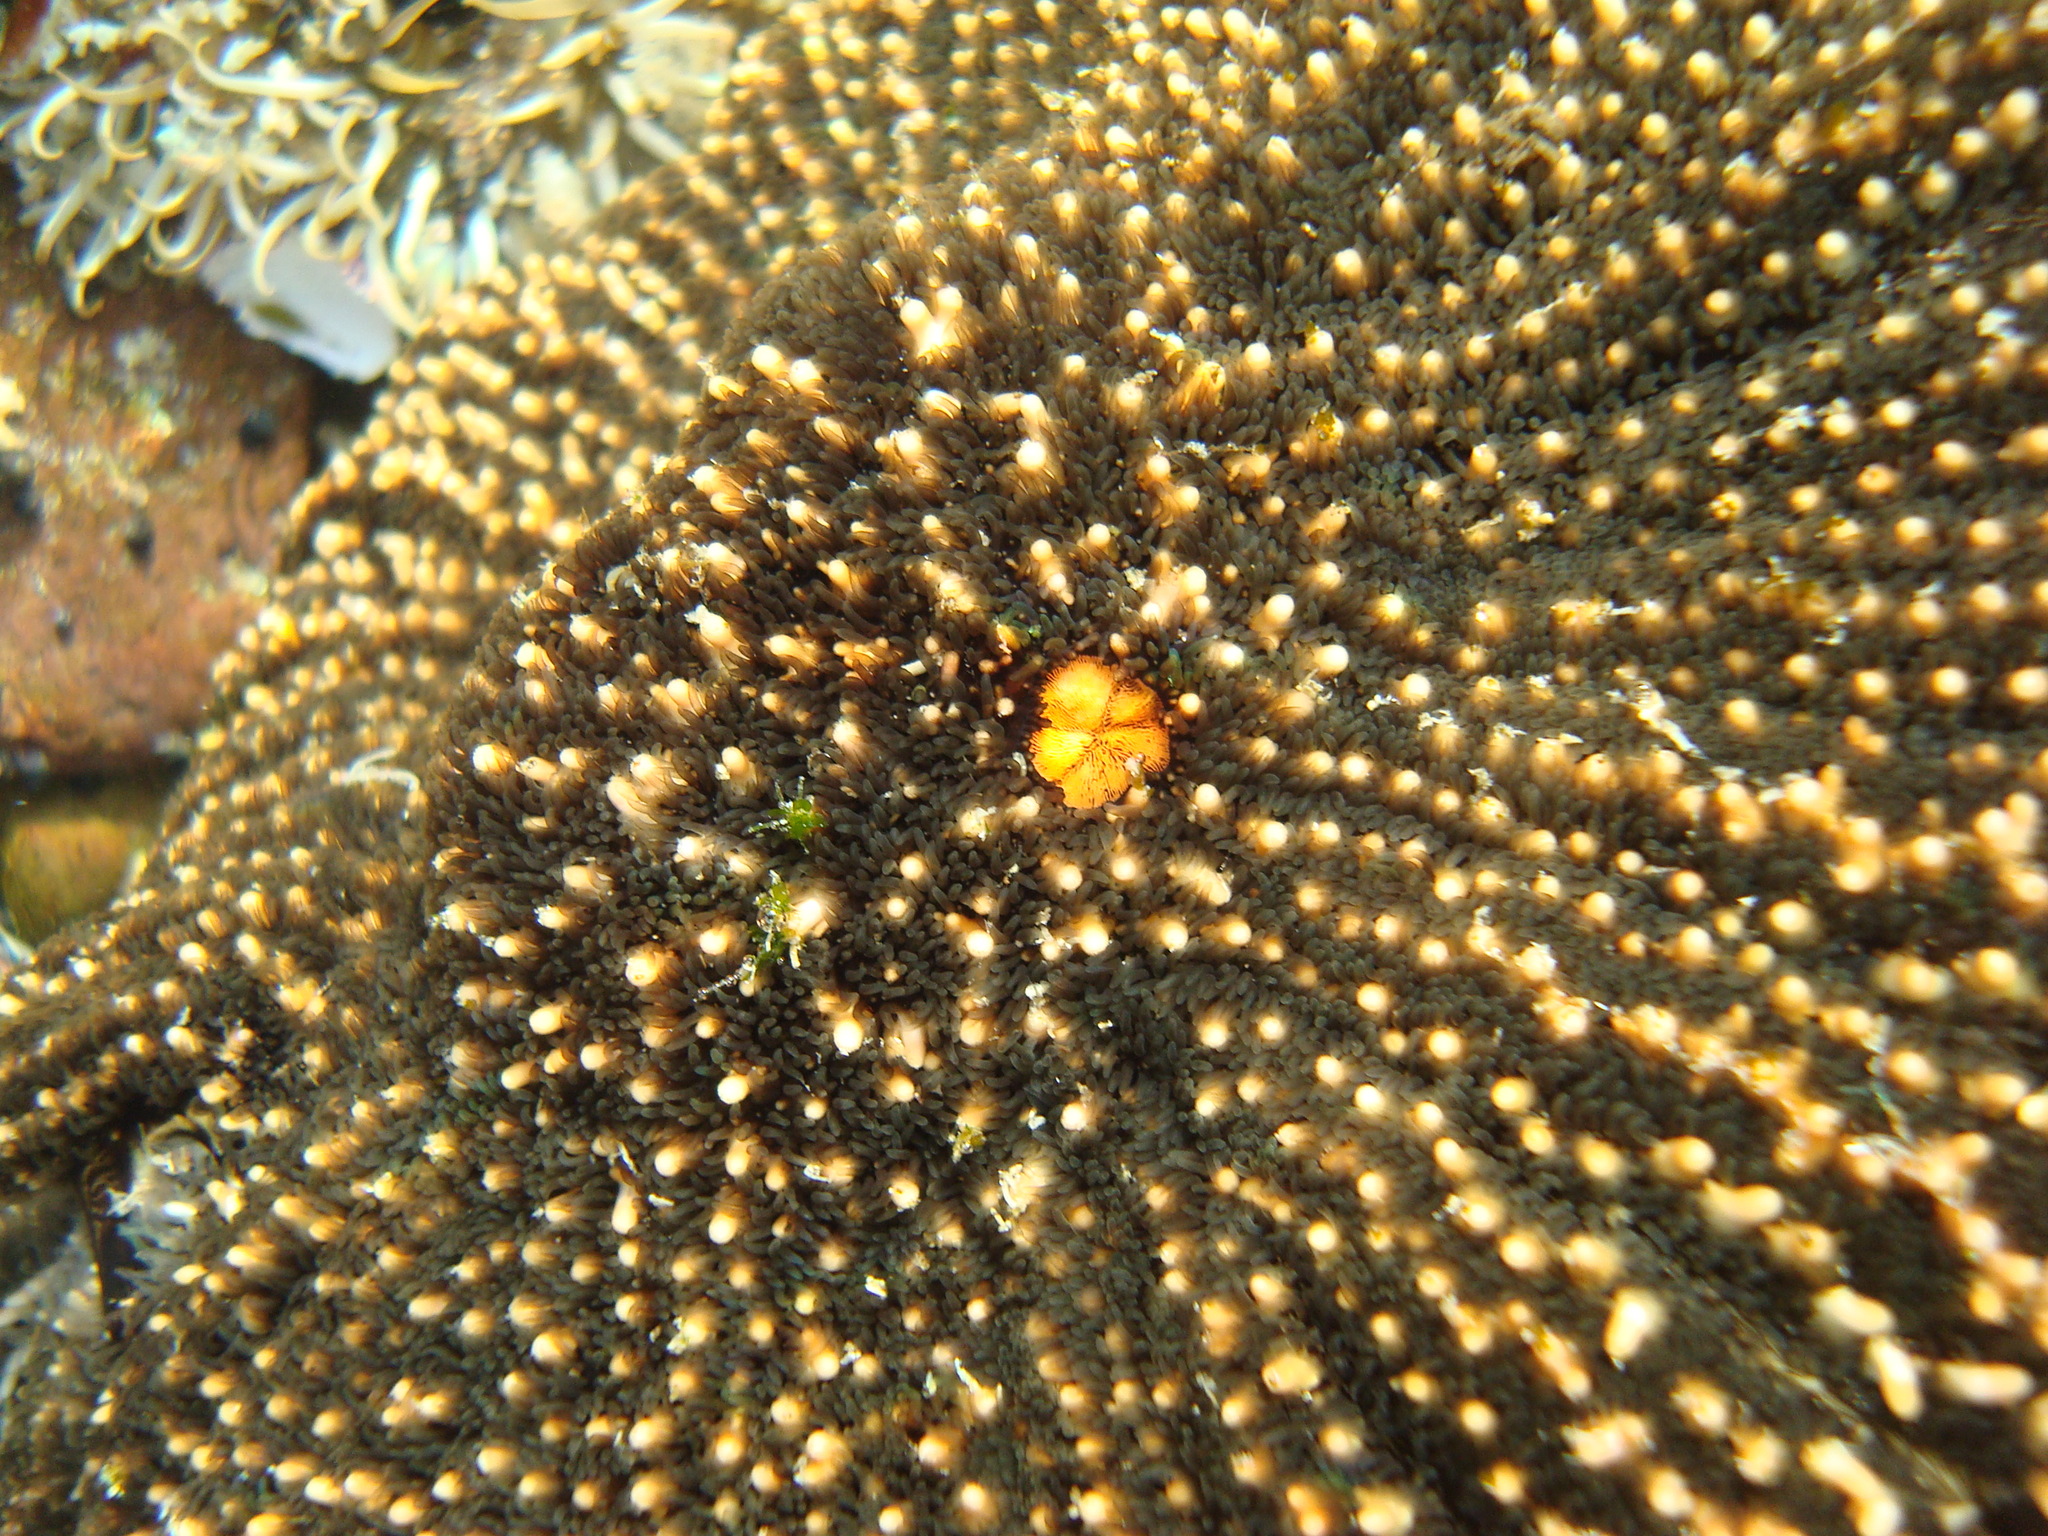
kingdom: Animalia
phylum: Echinodermata
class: Asteroidea
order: Forcipulatida
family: Heliasteridae
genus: Heliaster
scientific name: Heliaster helianthus
